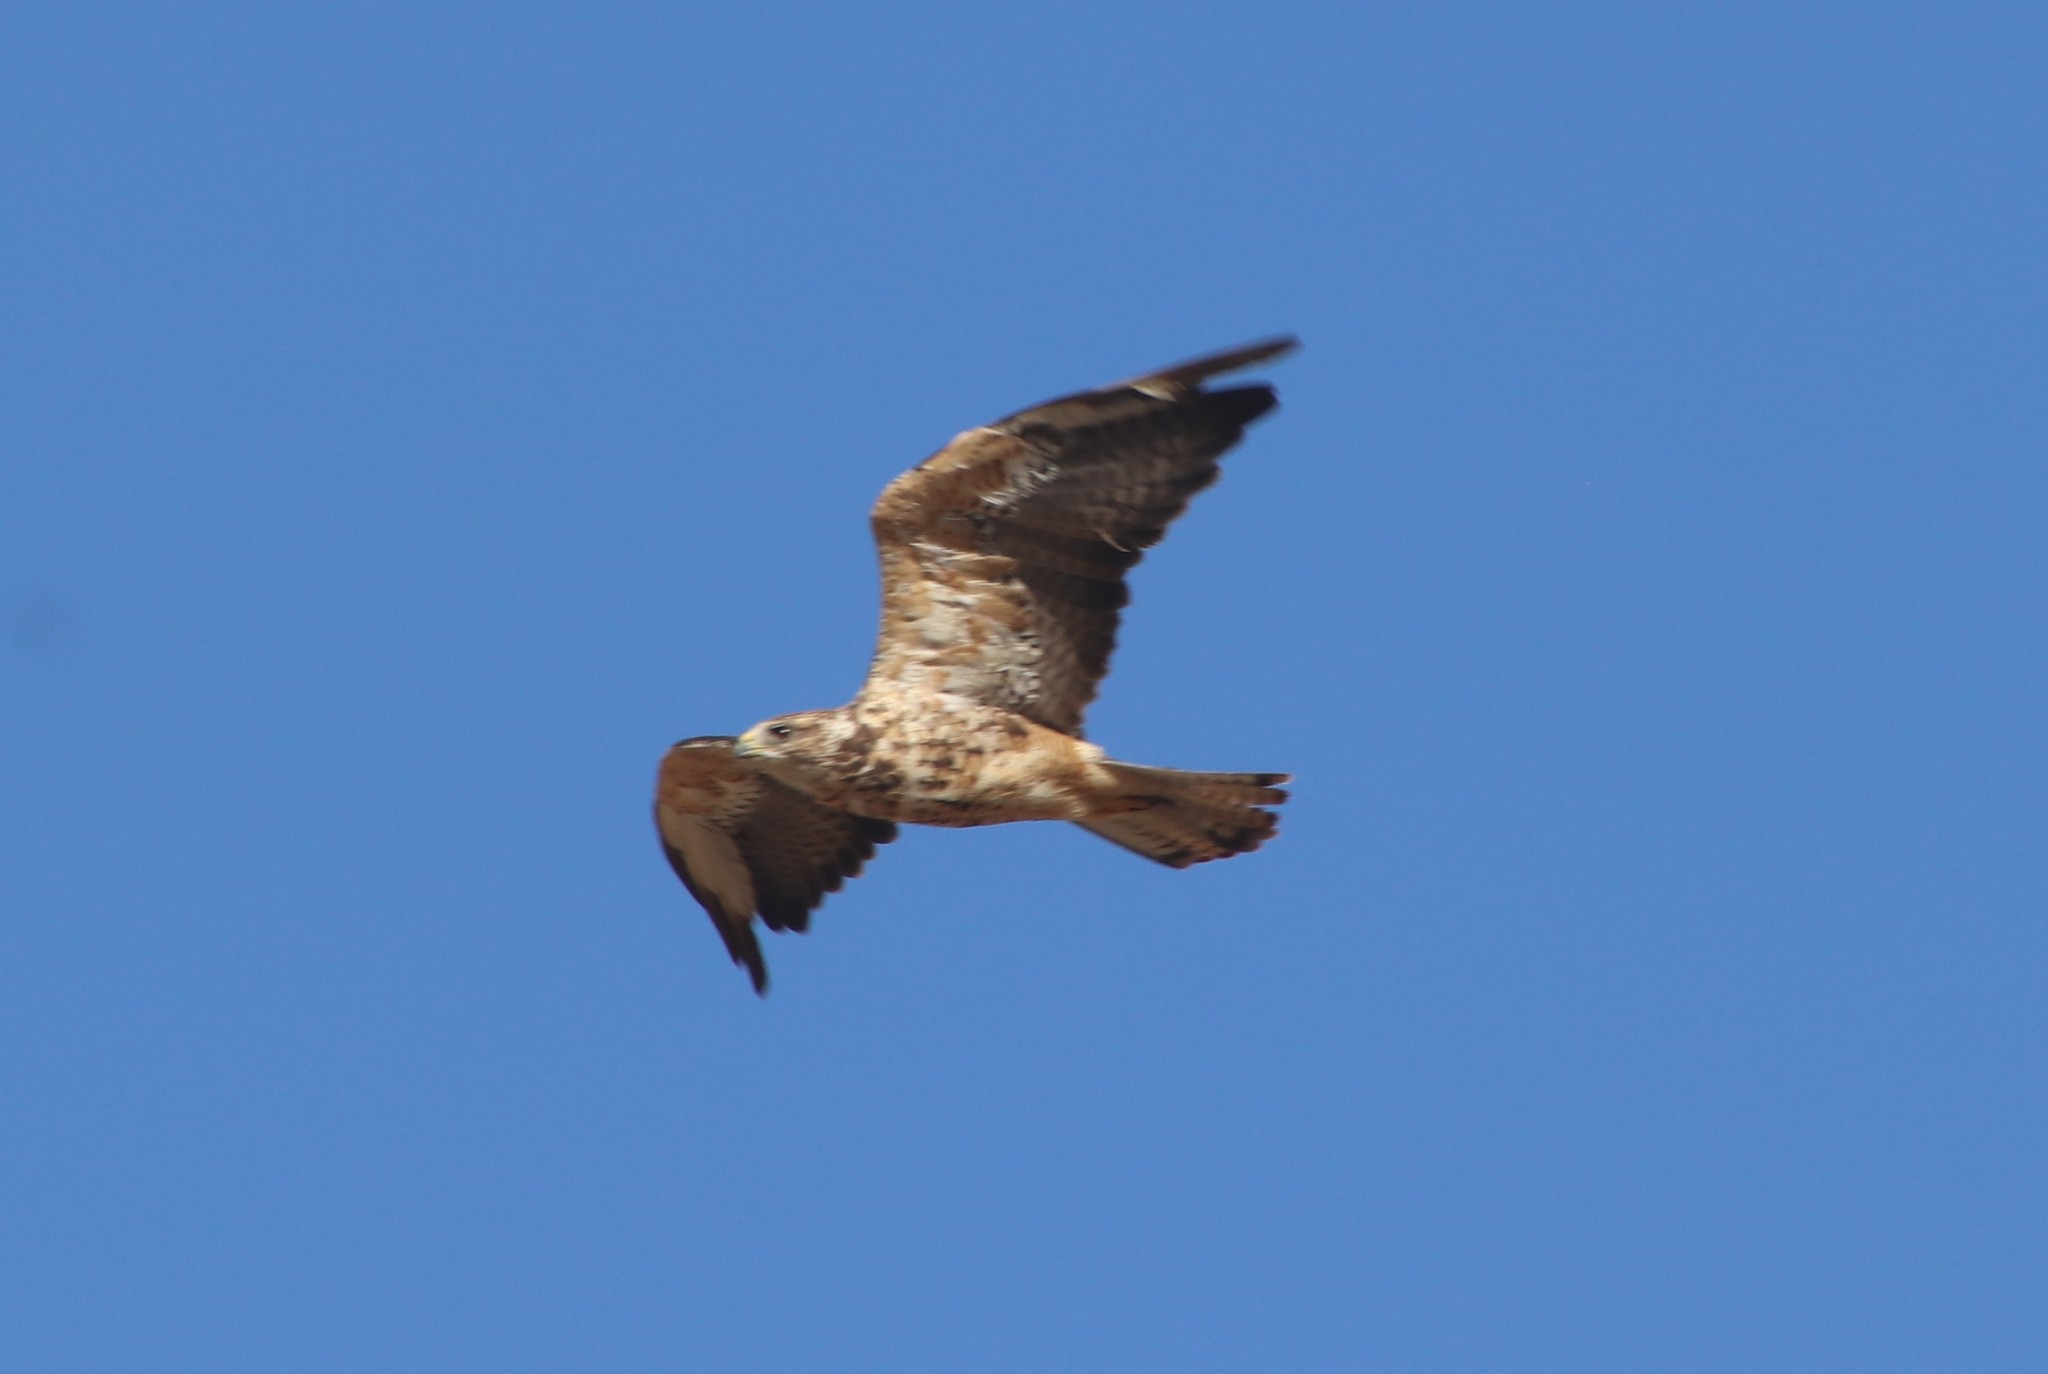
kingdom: Animalia
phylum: Chordata
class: Aves
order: Accipitriformes
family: Accipitridae
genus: Buteo
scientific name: Buteo swainsoni
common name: Swainson's hawk
